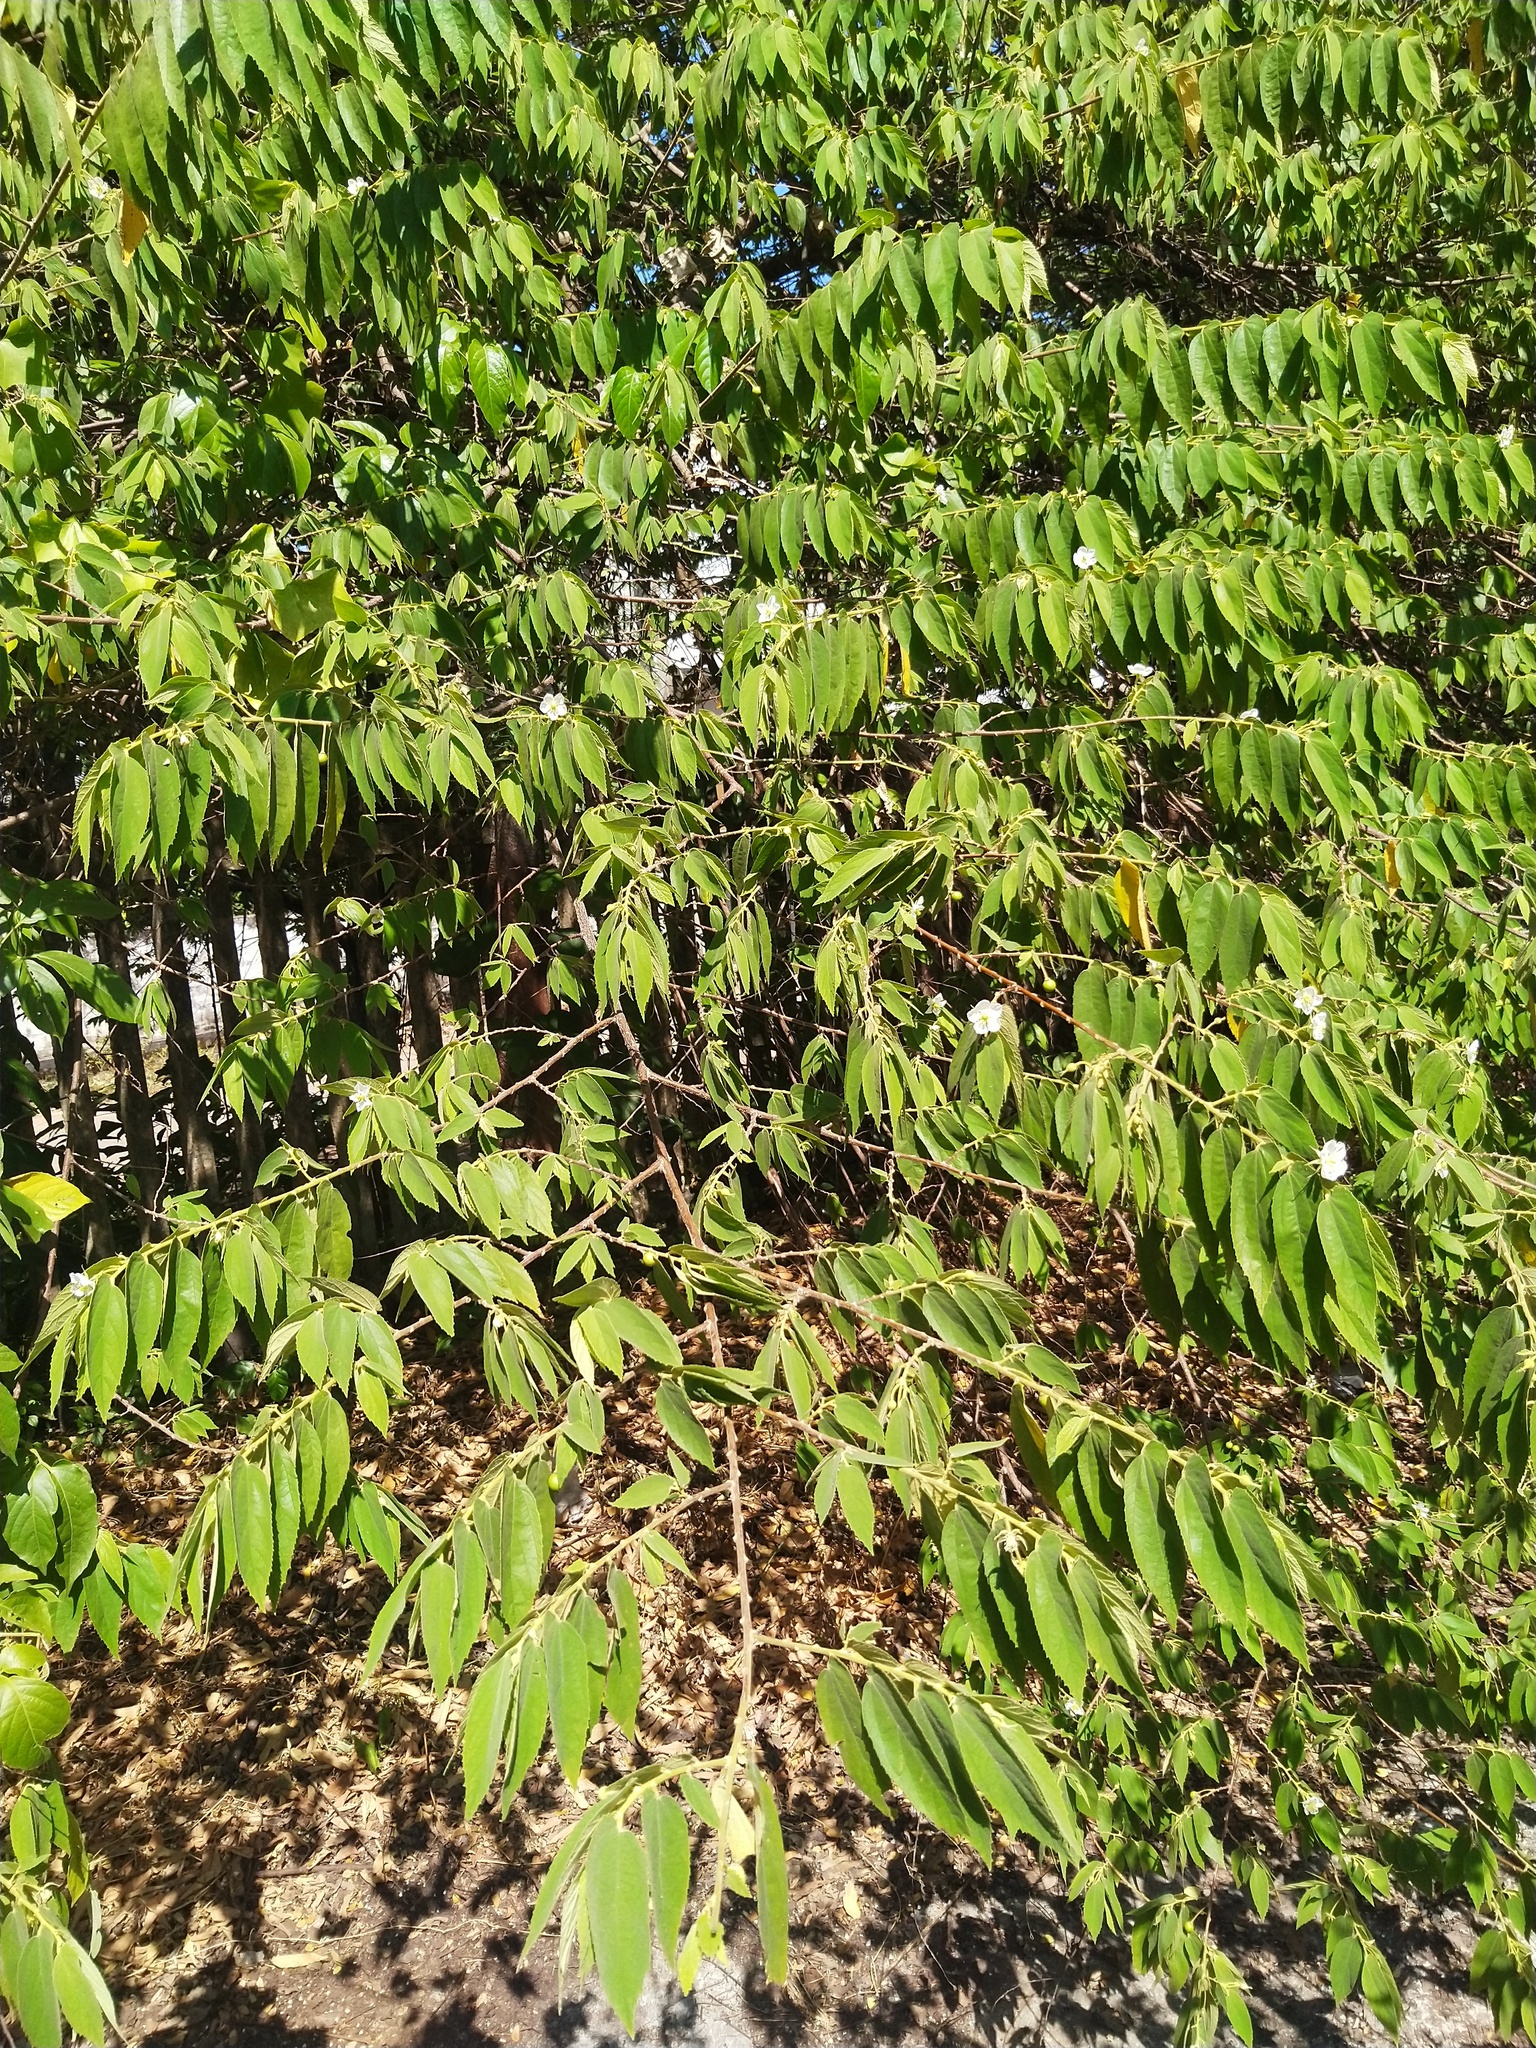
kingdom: Plantae
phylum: Tracheophyta
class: Magnoliopsida
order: Malvales
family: Muntingiaceae
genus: Muntingia
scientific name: Muntingia calabura
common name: Strawberrytree
